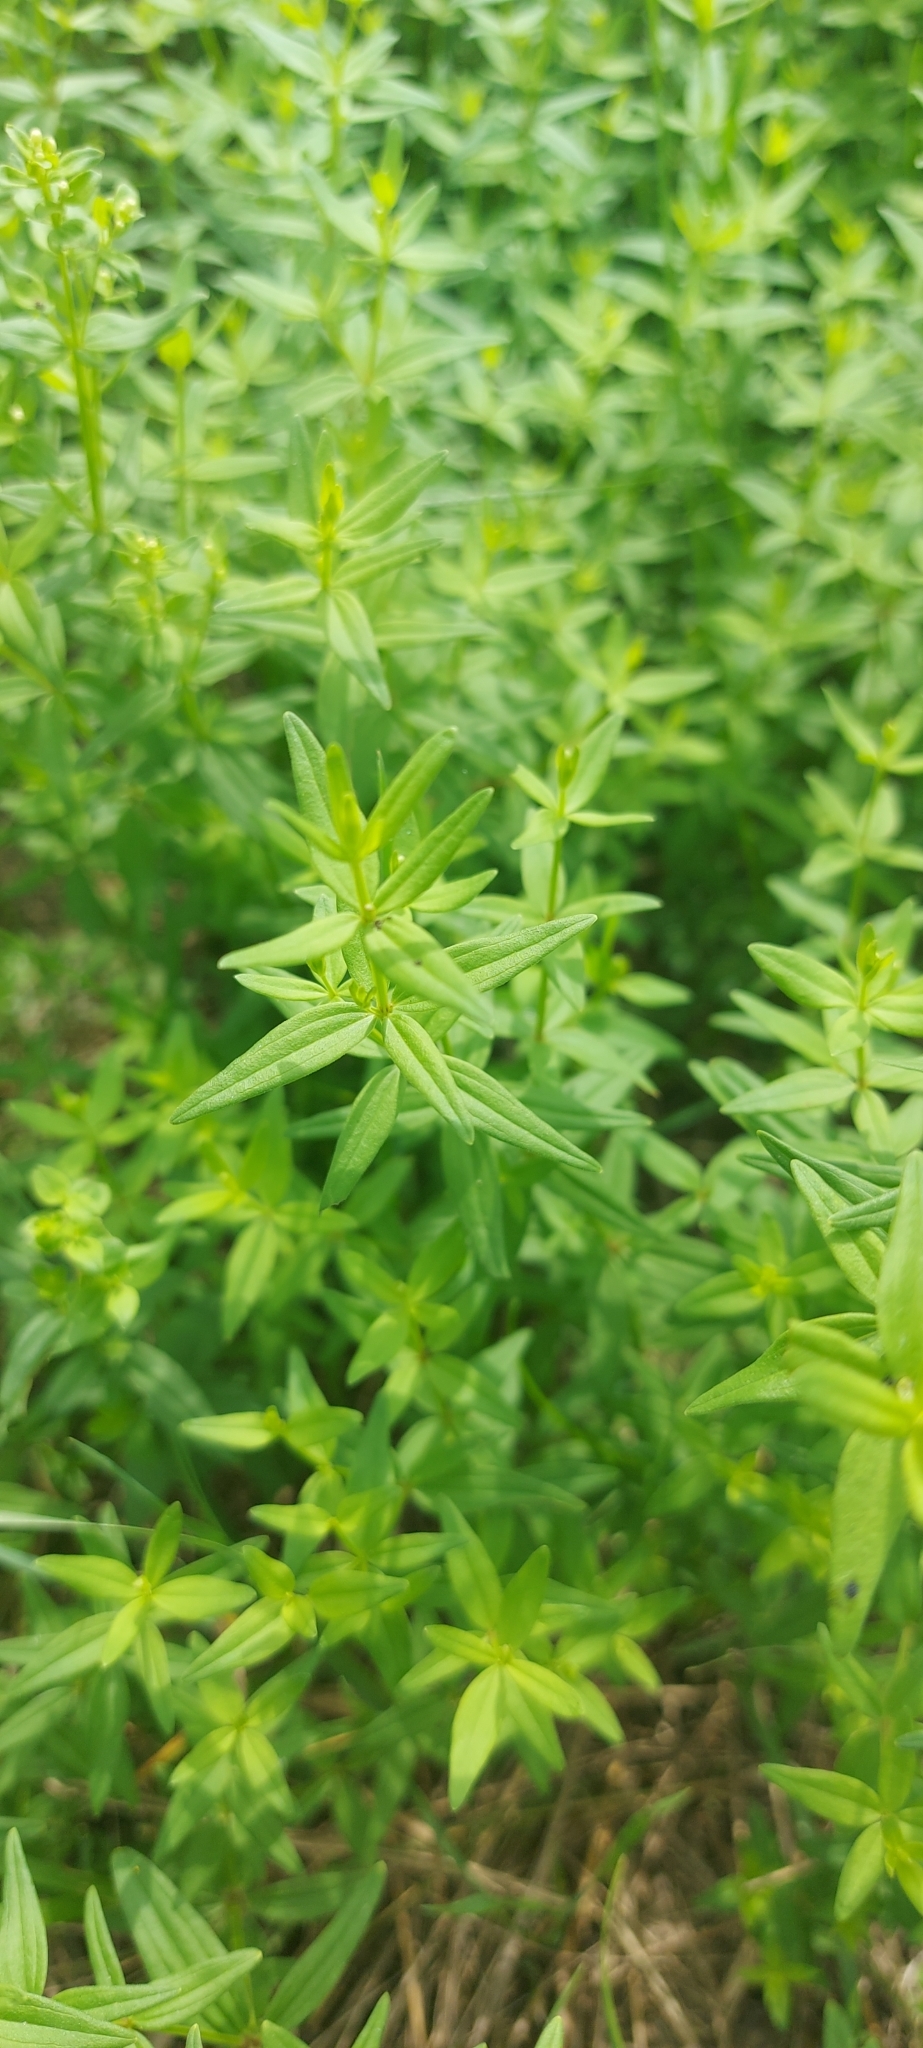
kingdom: Plantae
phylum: Tracheophyta
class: Magnoliopsida
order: Gentianales
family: Rubiaceae
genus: Galium
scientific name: Galium boreale
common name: Northern bedstraw
